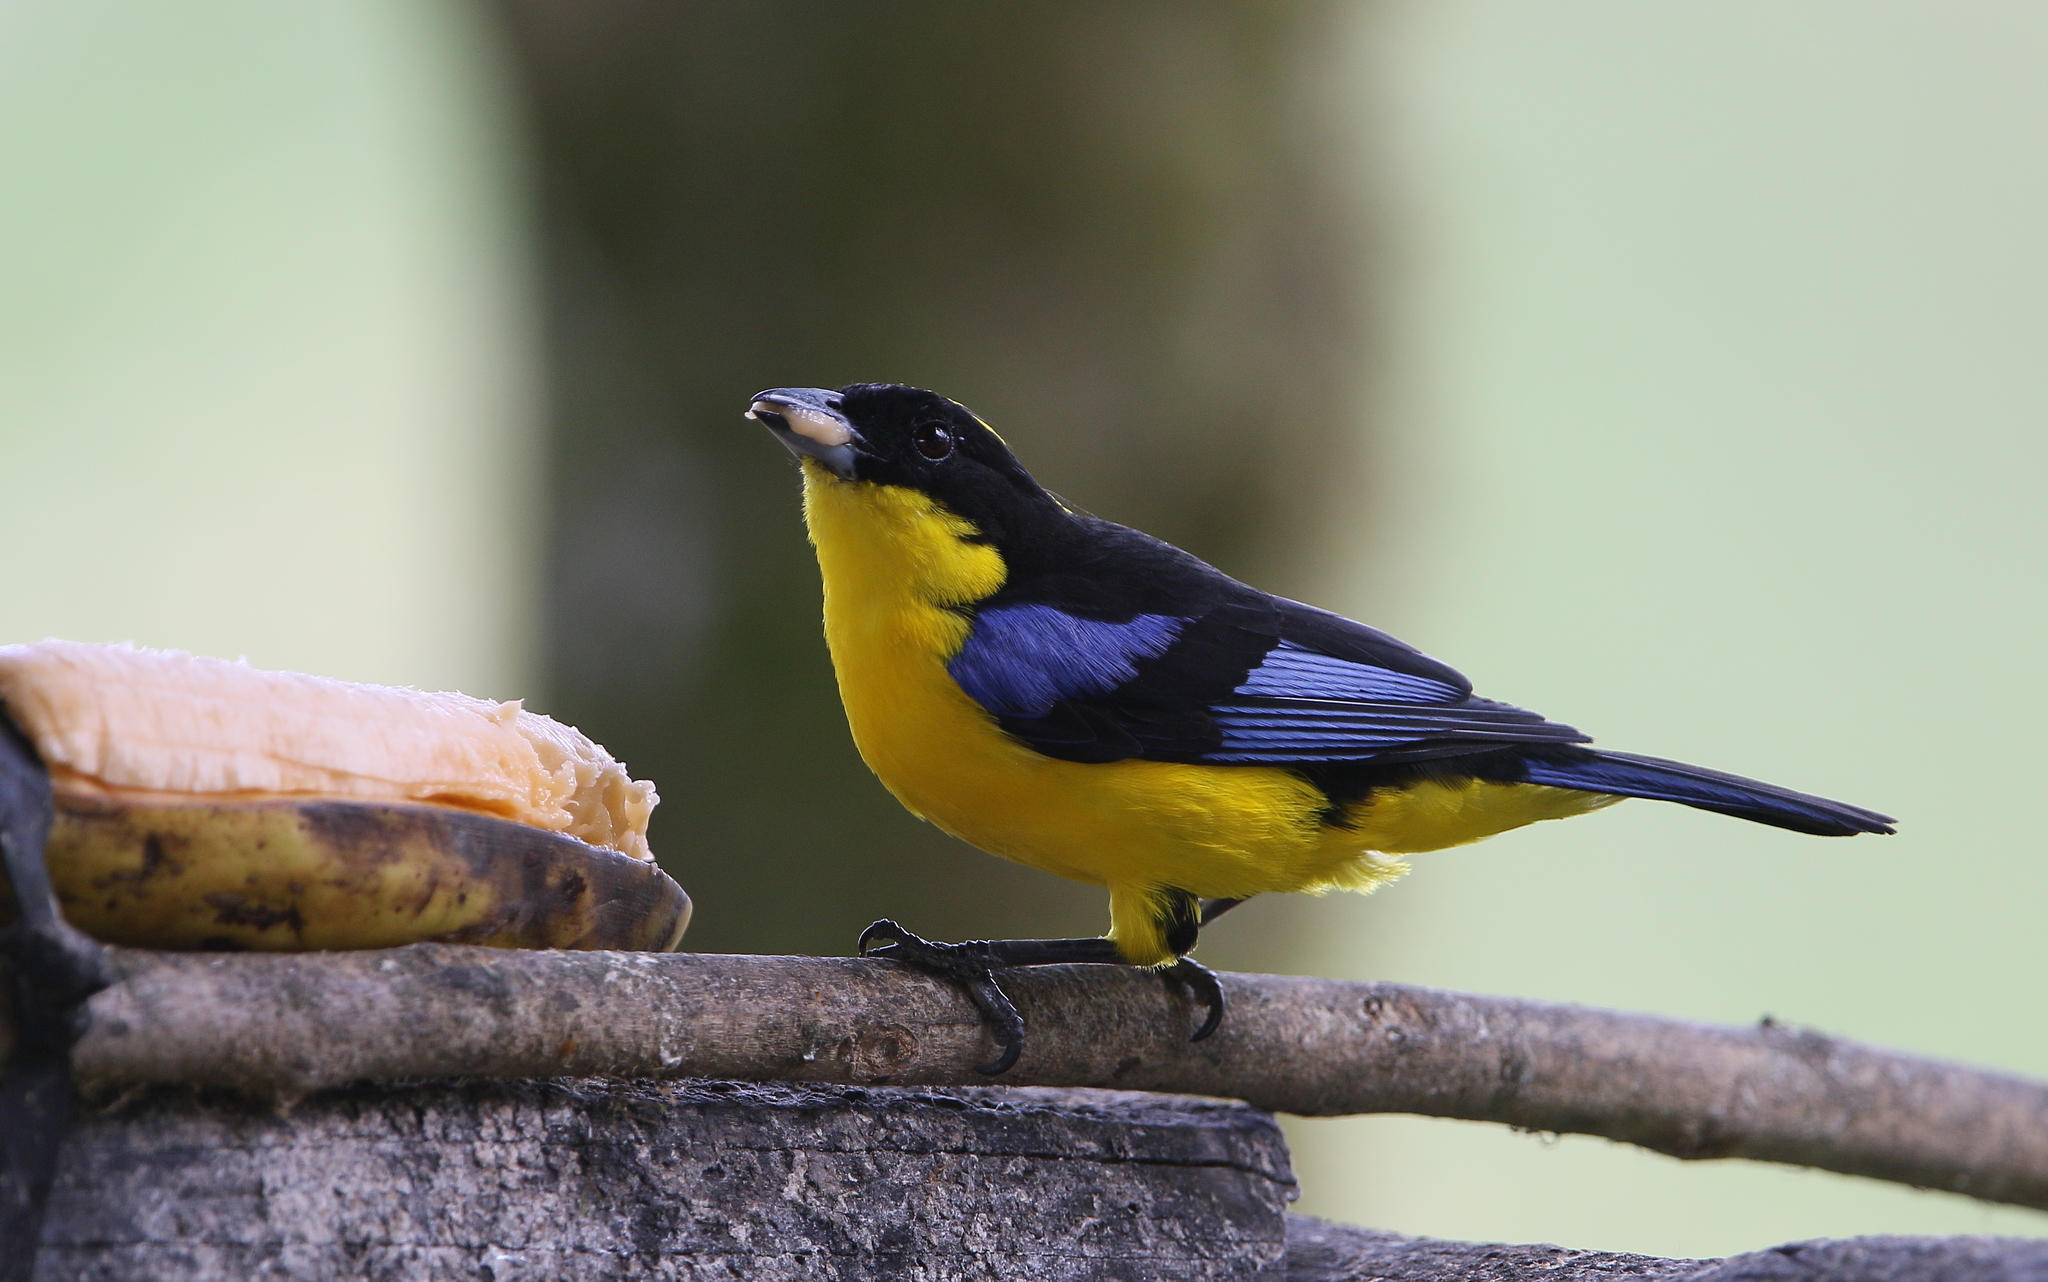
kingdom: Animalia
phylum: Chordata
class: Aves
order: Passeriformes
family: Thraupidae
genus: Anisognathus
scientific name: Anisognathus somptuosus
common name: Blue-winged mountain-tanager
